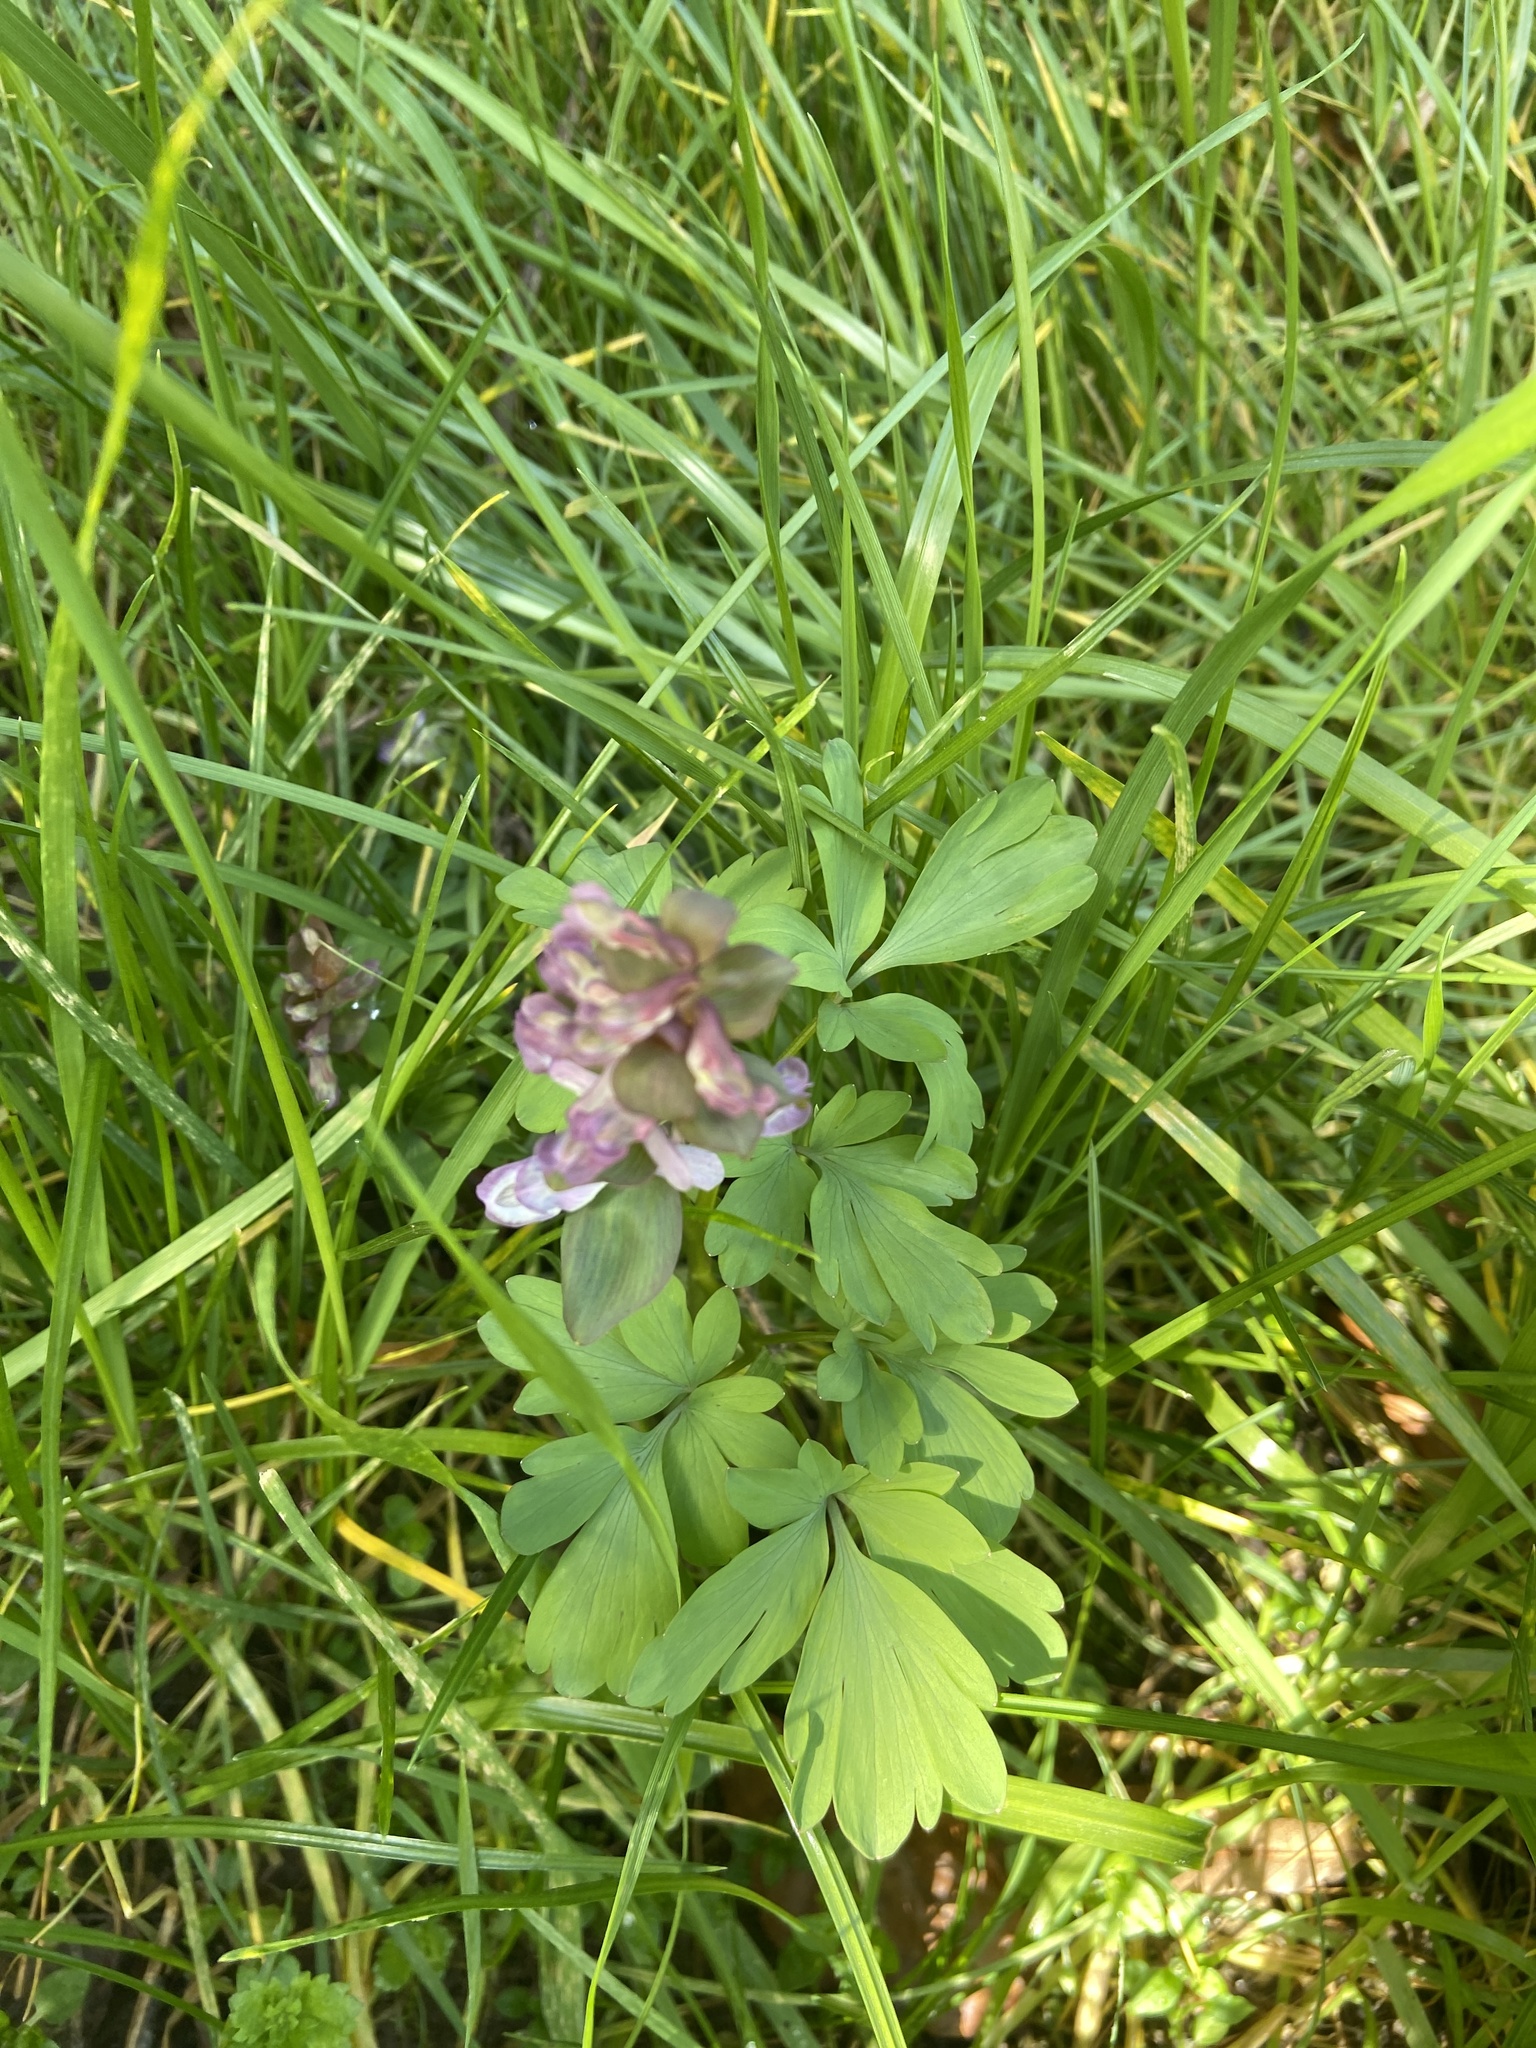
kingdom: Plantae
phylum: Tracheophyta
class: Magnoliopsida
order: Ranunculales
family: Papaveraceae
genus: Corydalis
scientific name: Corydalis cava
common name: Hollowroot
